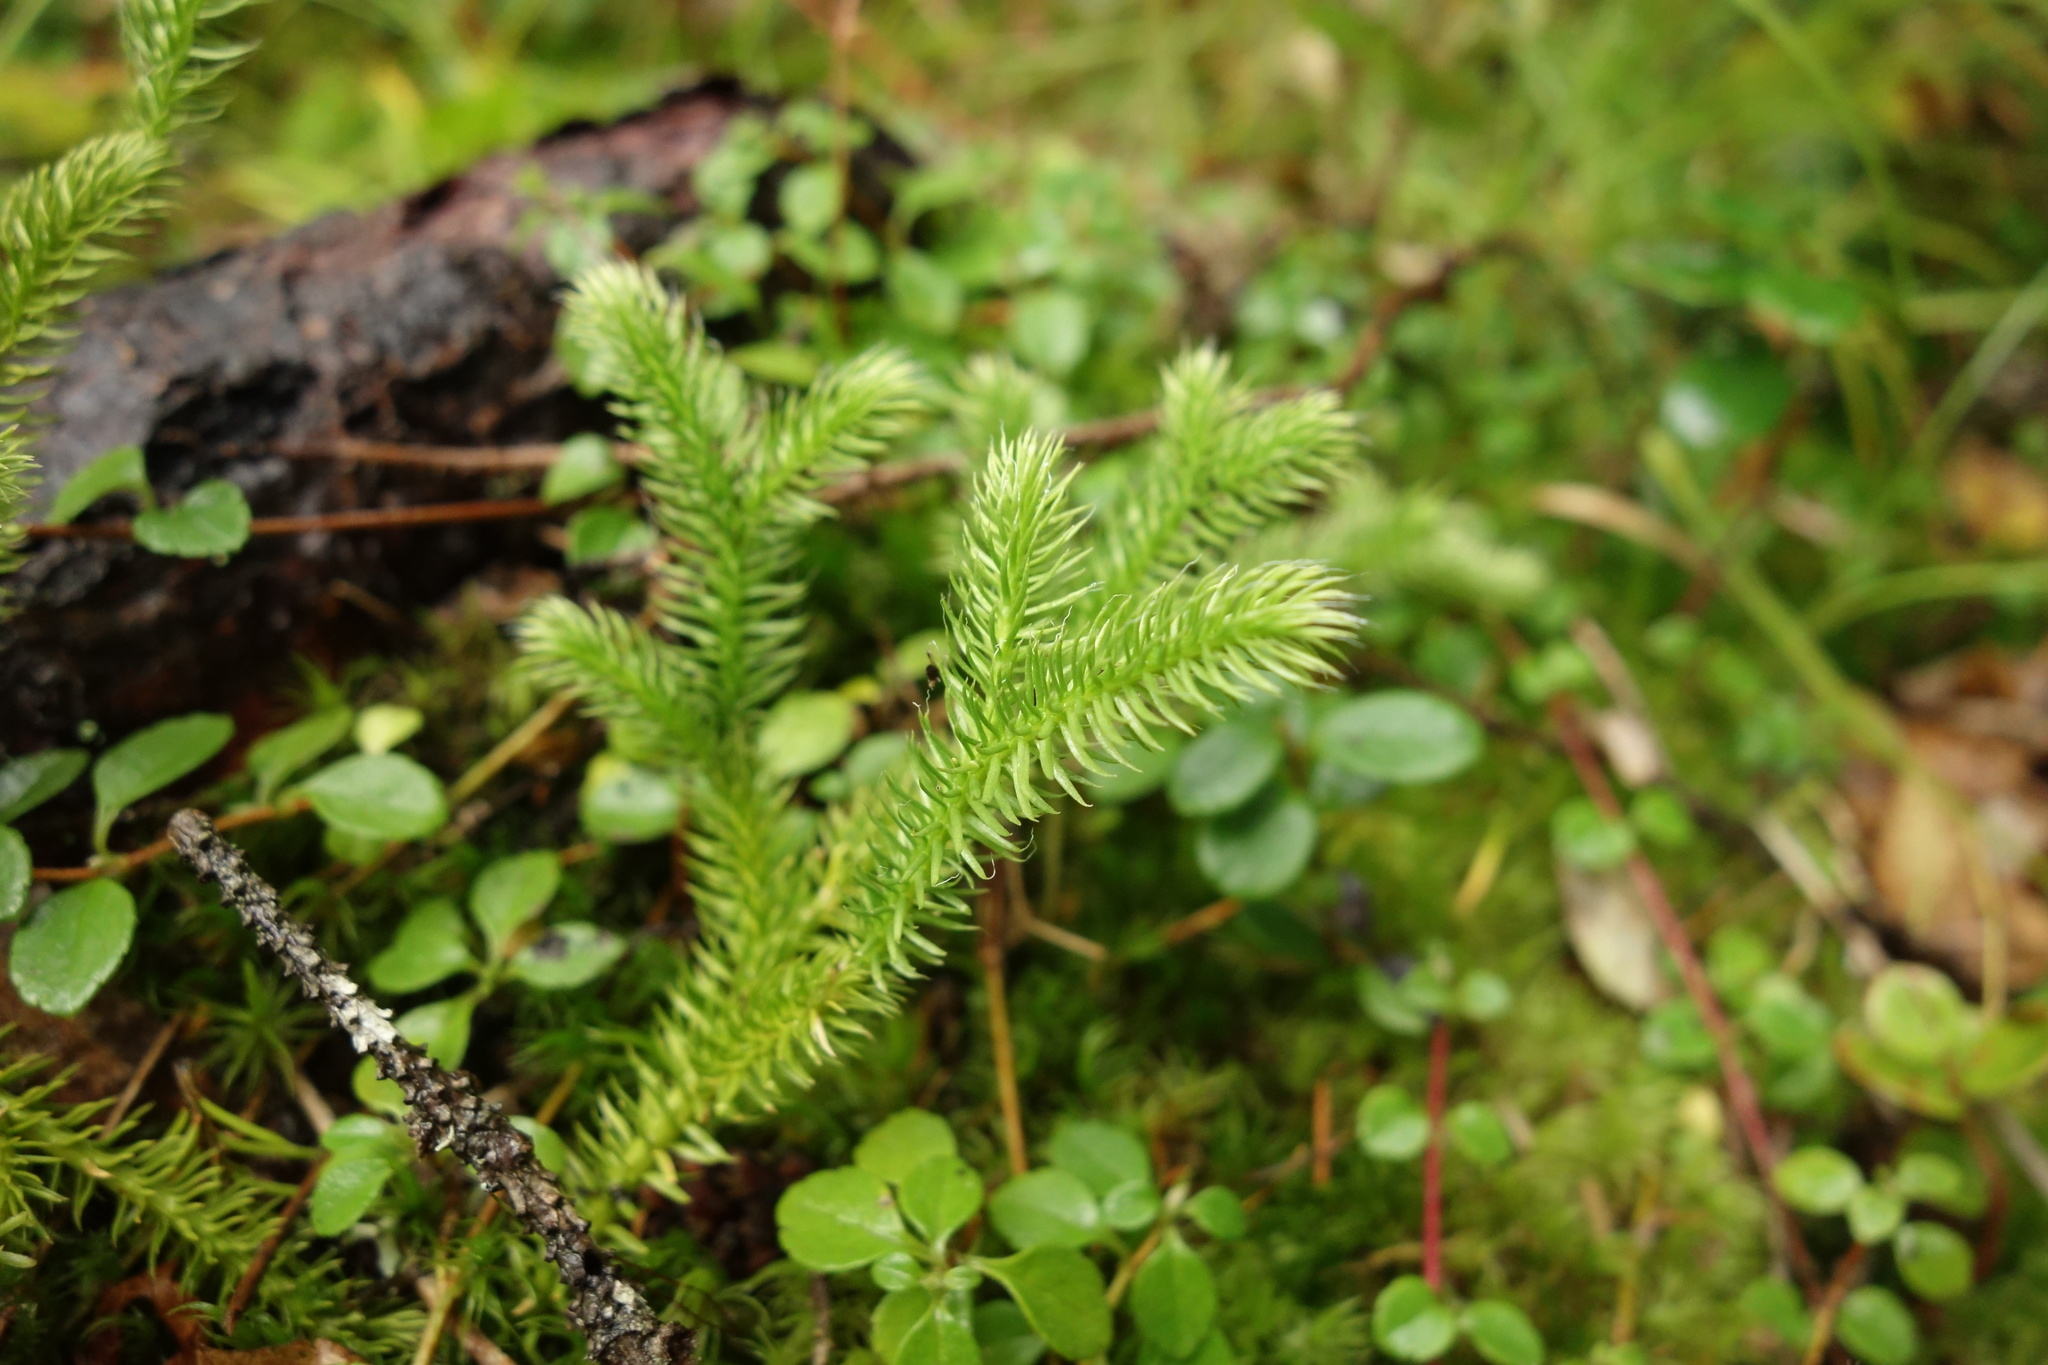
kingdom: Plantae
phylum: Tracheophyta
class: Lycopodiopsida
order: Lycopodiales
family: Lycopodiaceae
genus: Lycopodium
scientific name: Lycopodium clavatum
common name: Stag's-horn clubmoss
